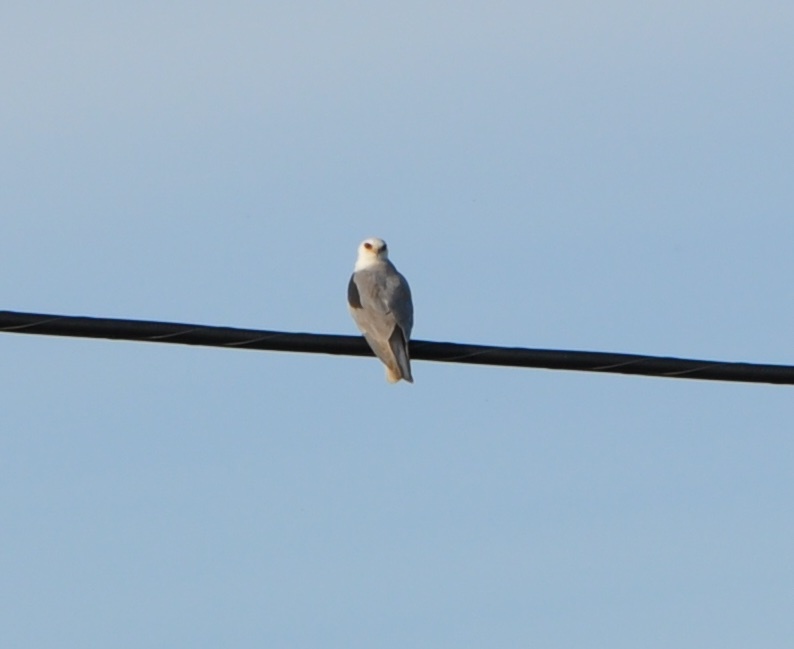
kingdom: Animalia
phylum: Chordata
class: Aves
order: Accipitriformes
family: Accipitridae
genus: Elanus
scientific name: Elanus leucurus
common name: White-tailed kite
